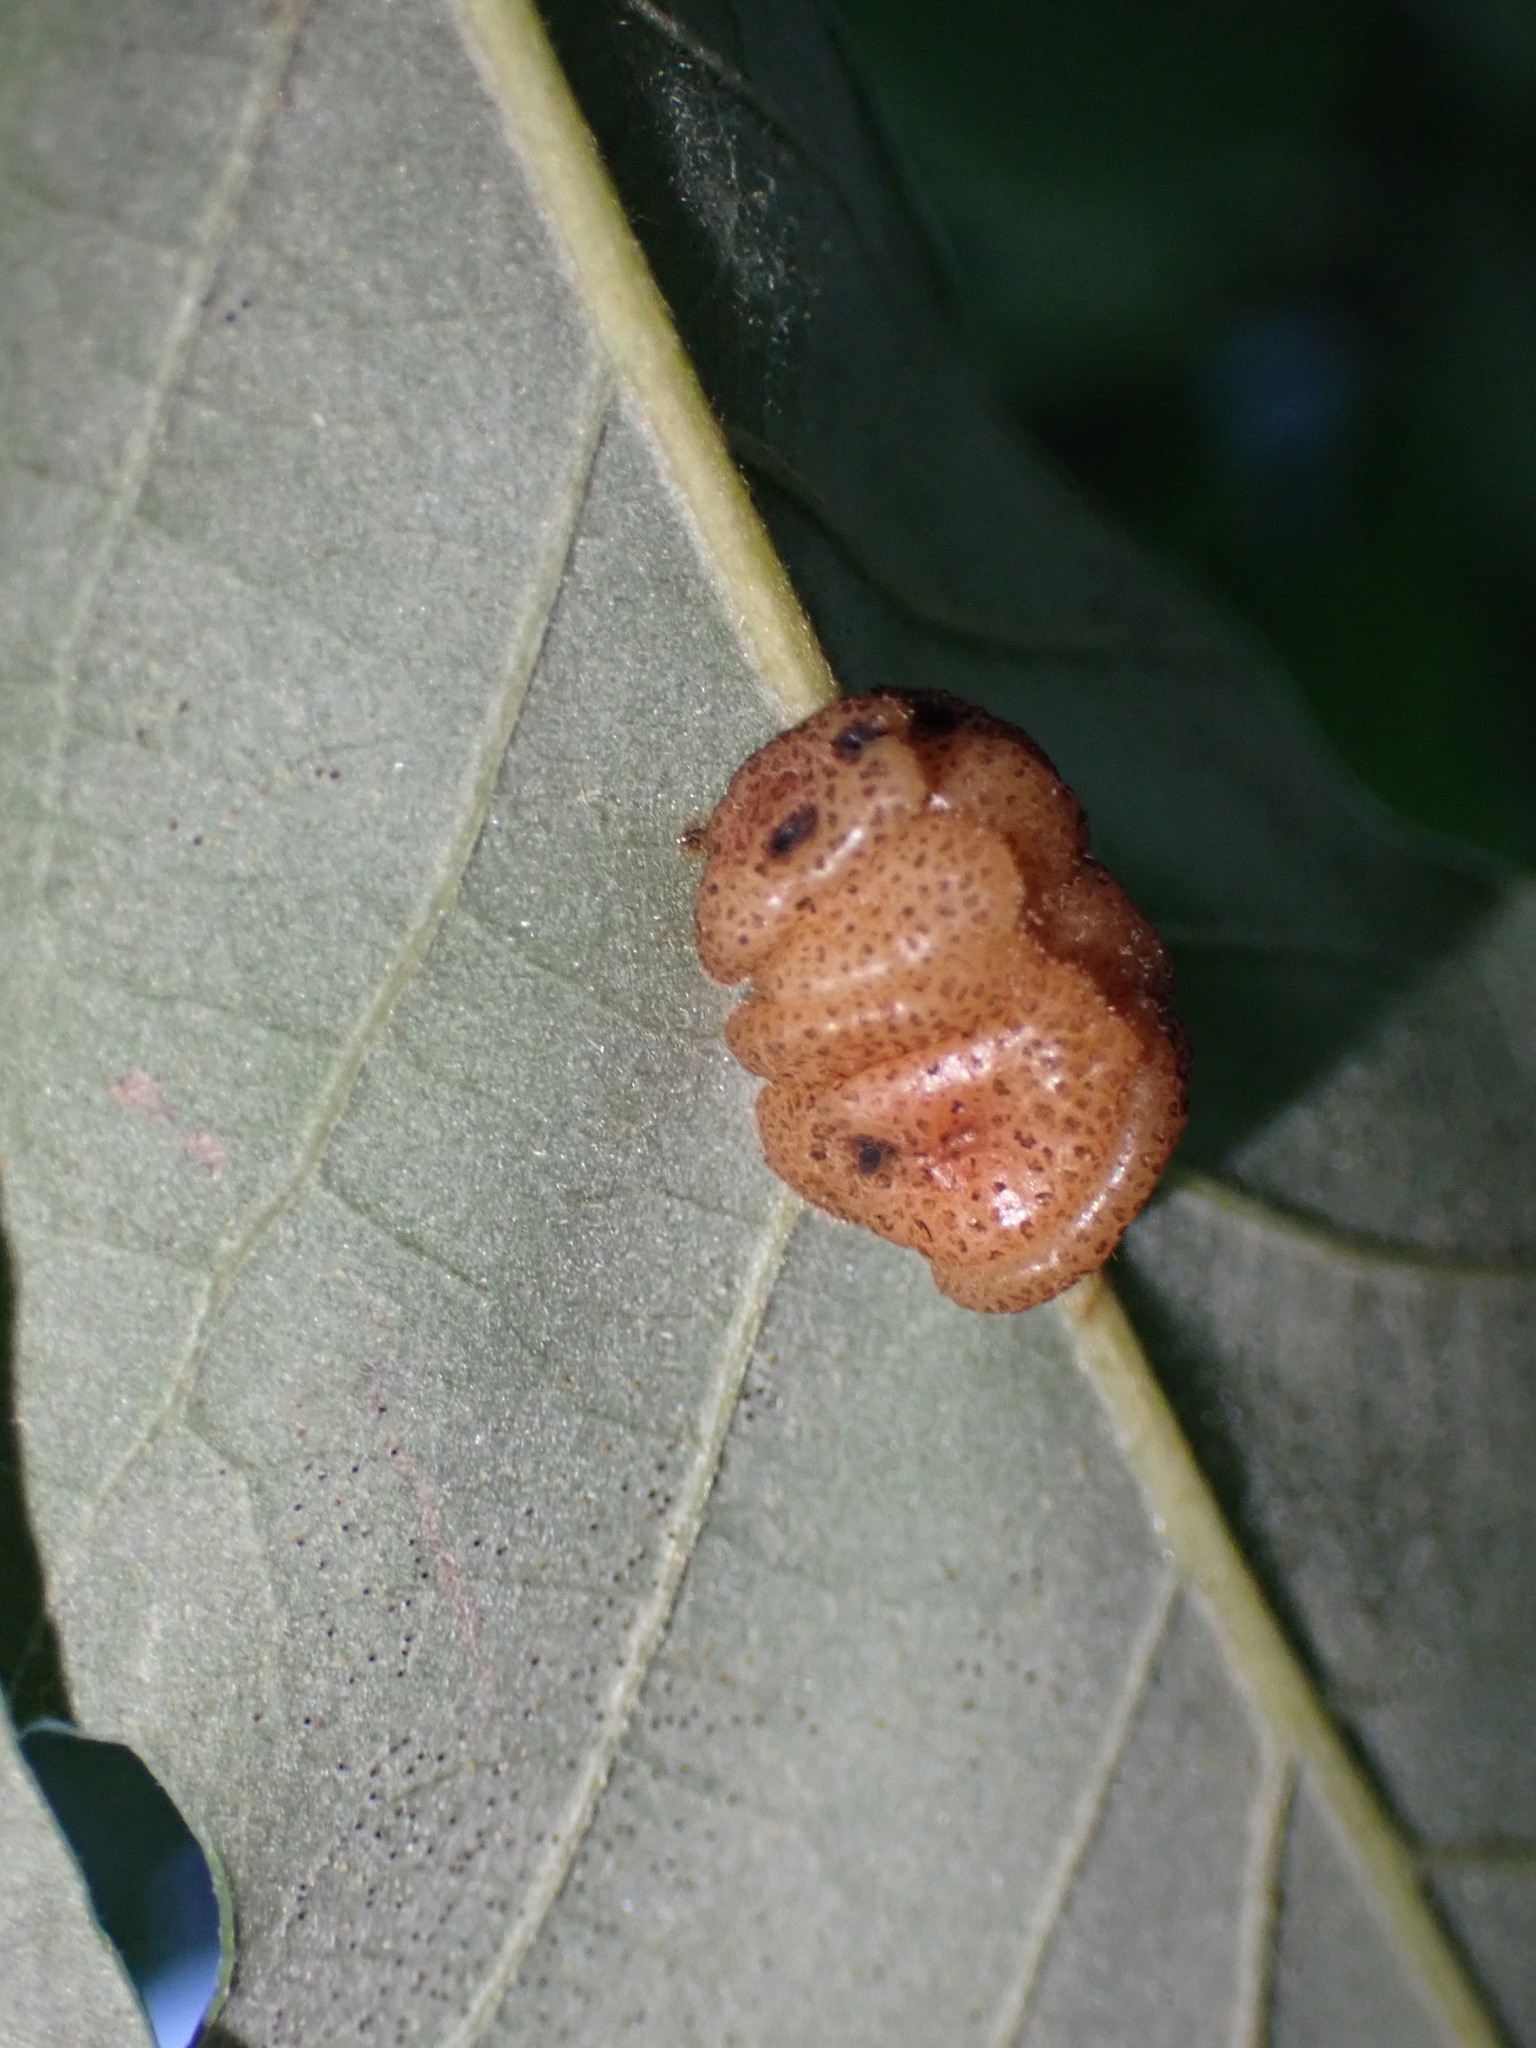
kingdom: Animalia
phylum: Arthropoda
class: Insecta
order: Hymenoptera
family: Cynipidae
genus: Andricus
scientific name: Andricus
